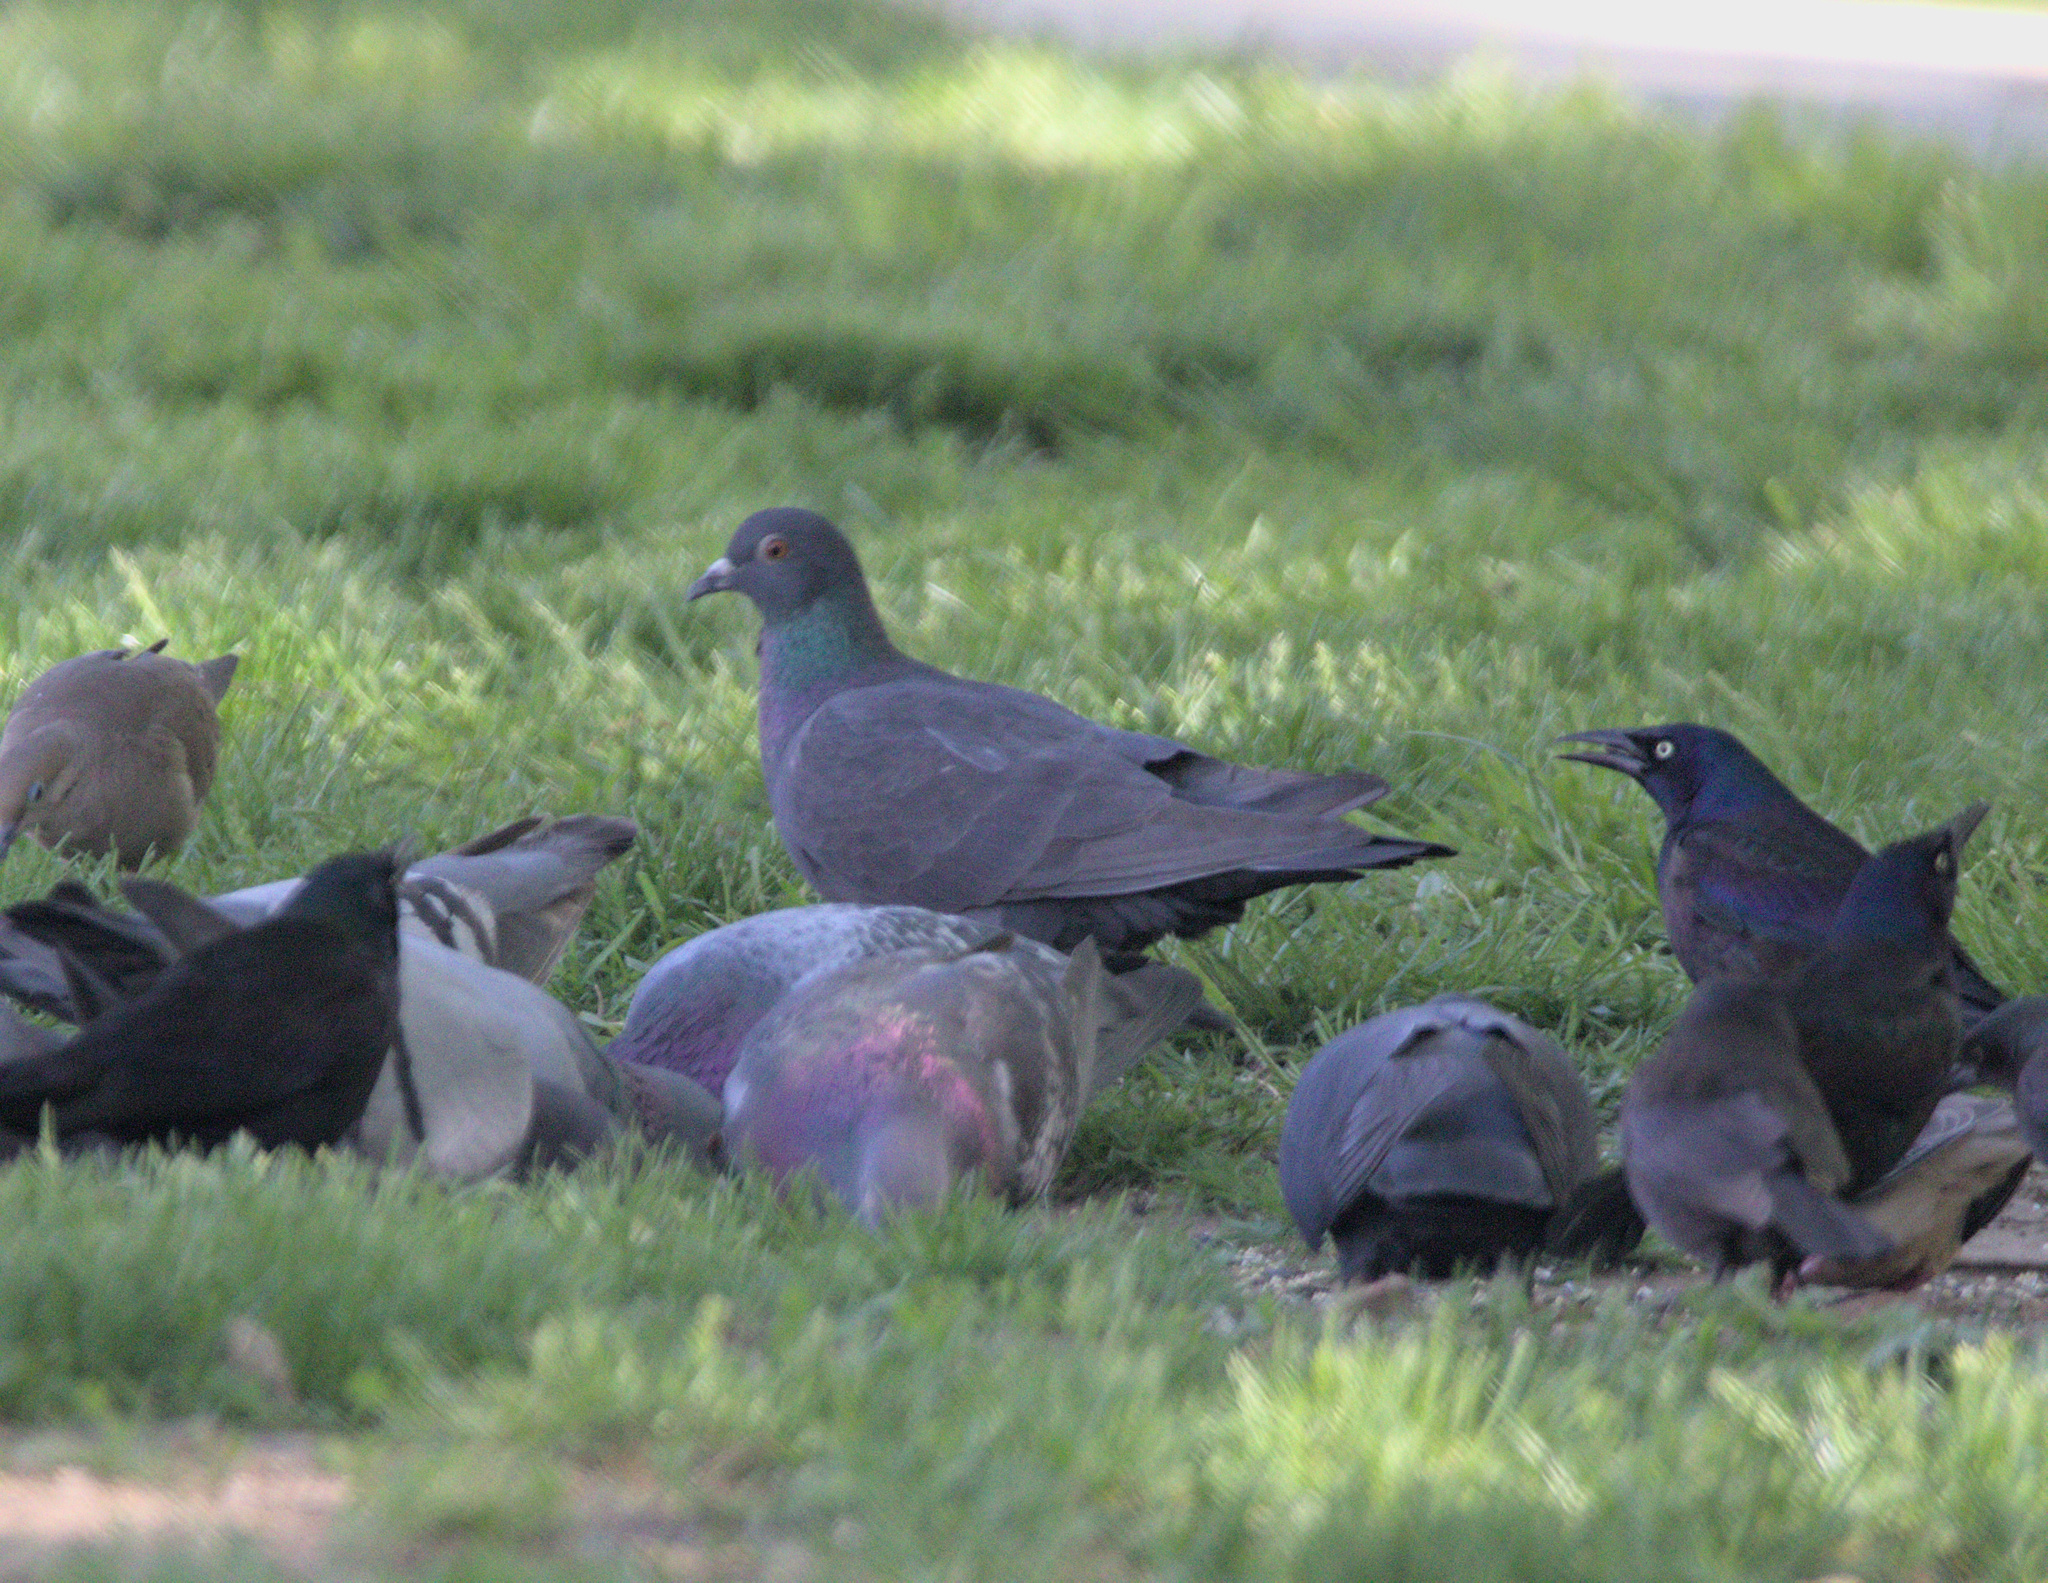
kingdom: Animalia
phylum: Chordata
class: Aves
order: Columbiformes
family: Columbidae
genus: Columba
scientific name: Columba livia
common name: Rock pigeon
